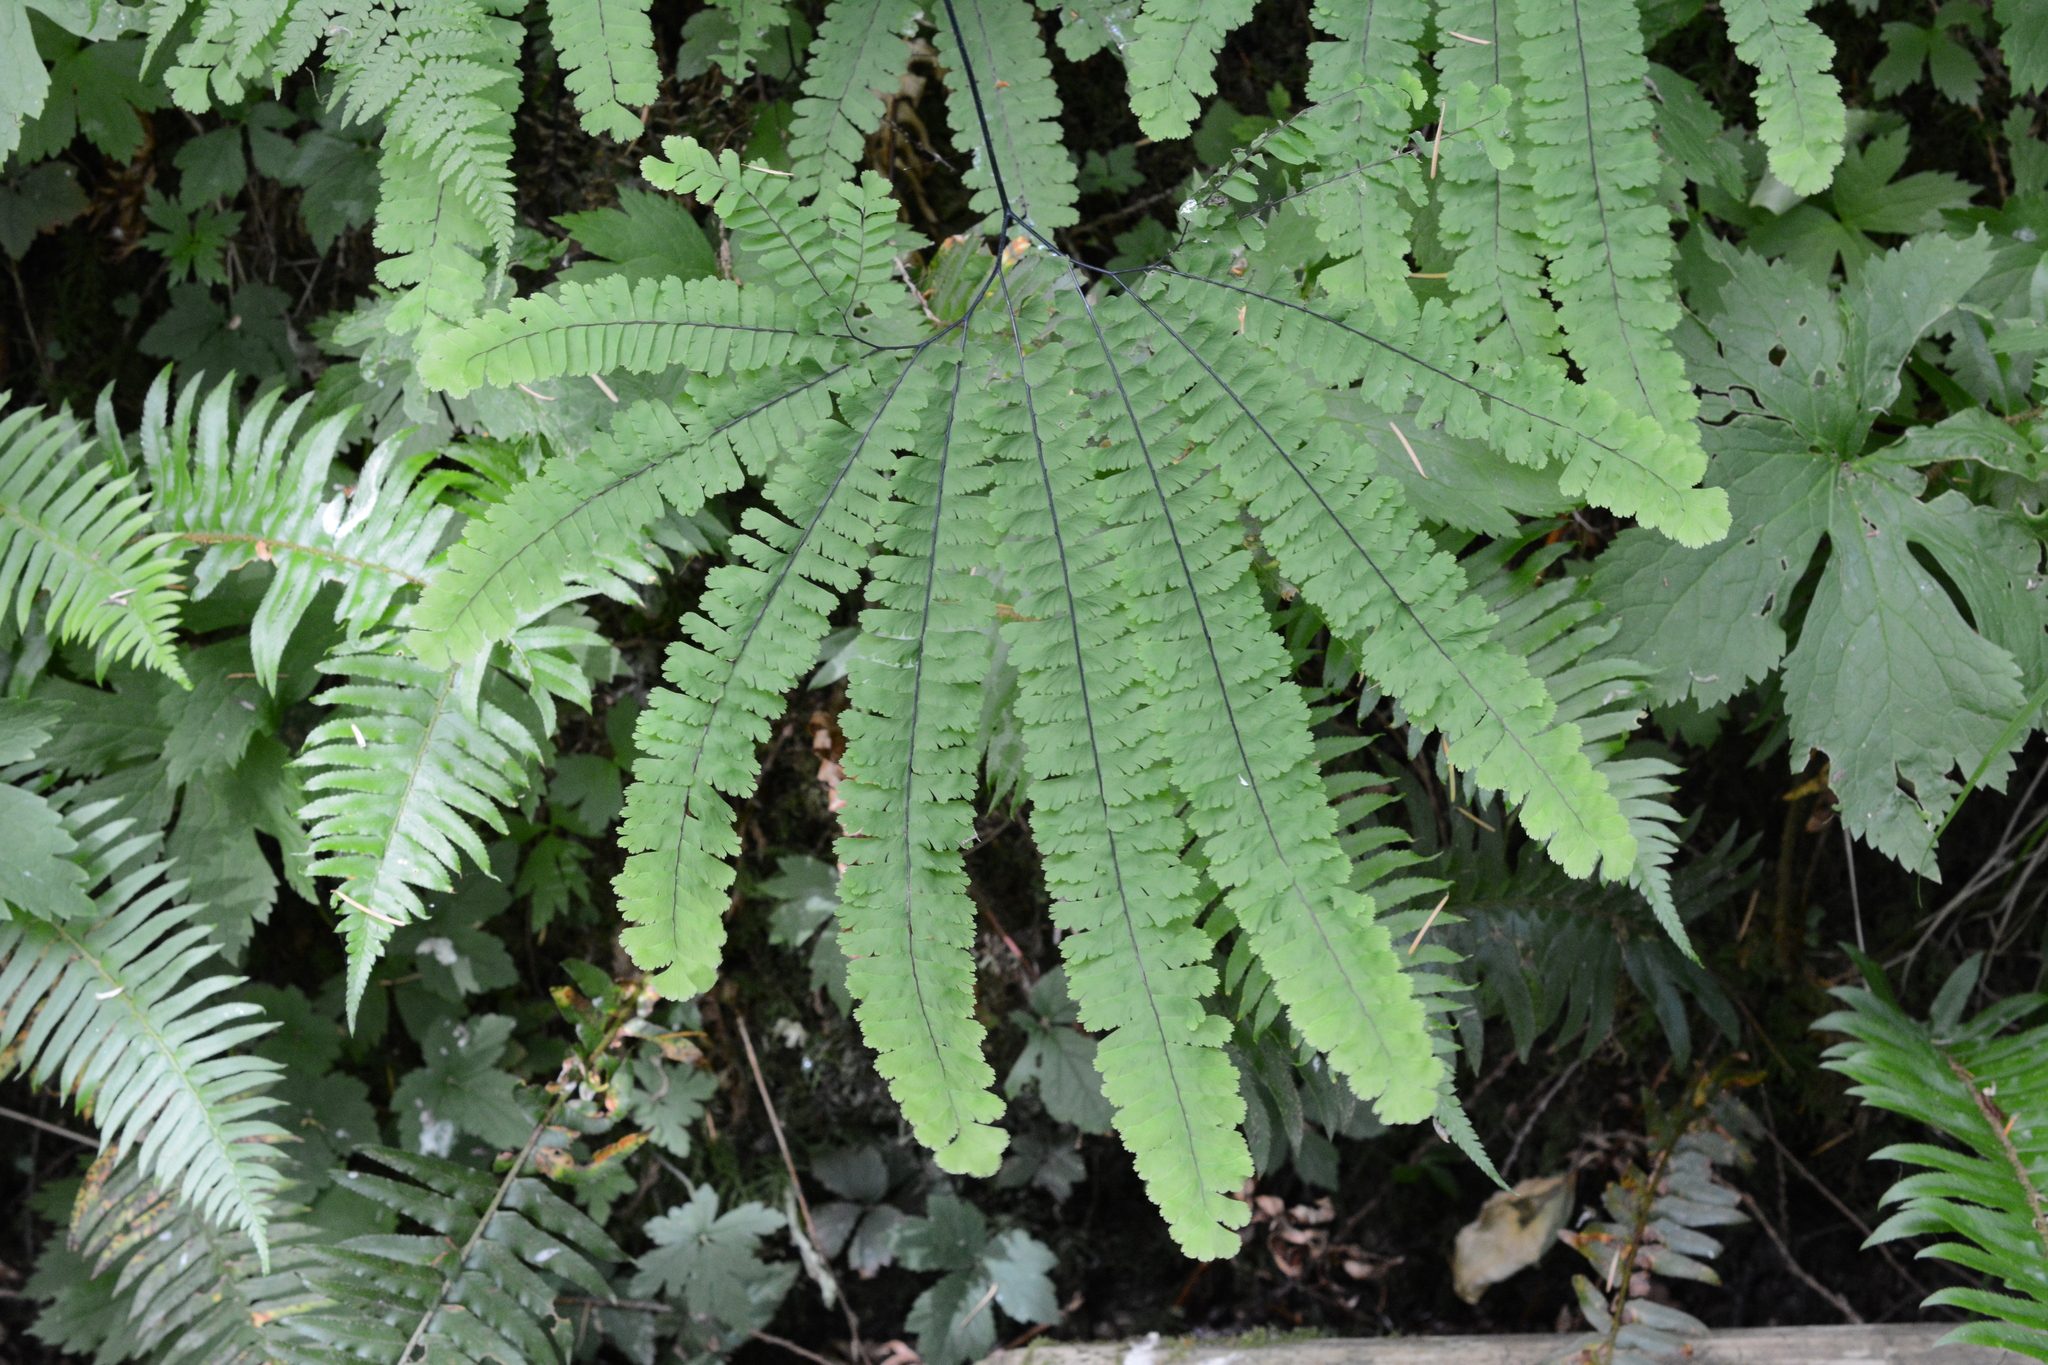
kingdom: Plantae
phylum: Tracheophyta
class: Polypodiopsida
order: Polypodiales
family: Pteridaceae
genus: Adiantum
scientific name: Adiantum aleuticum
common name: Aleutian maidenhair fern
